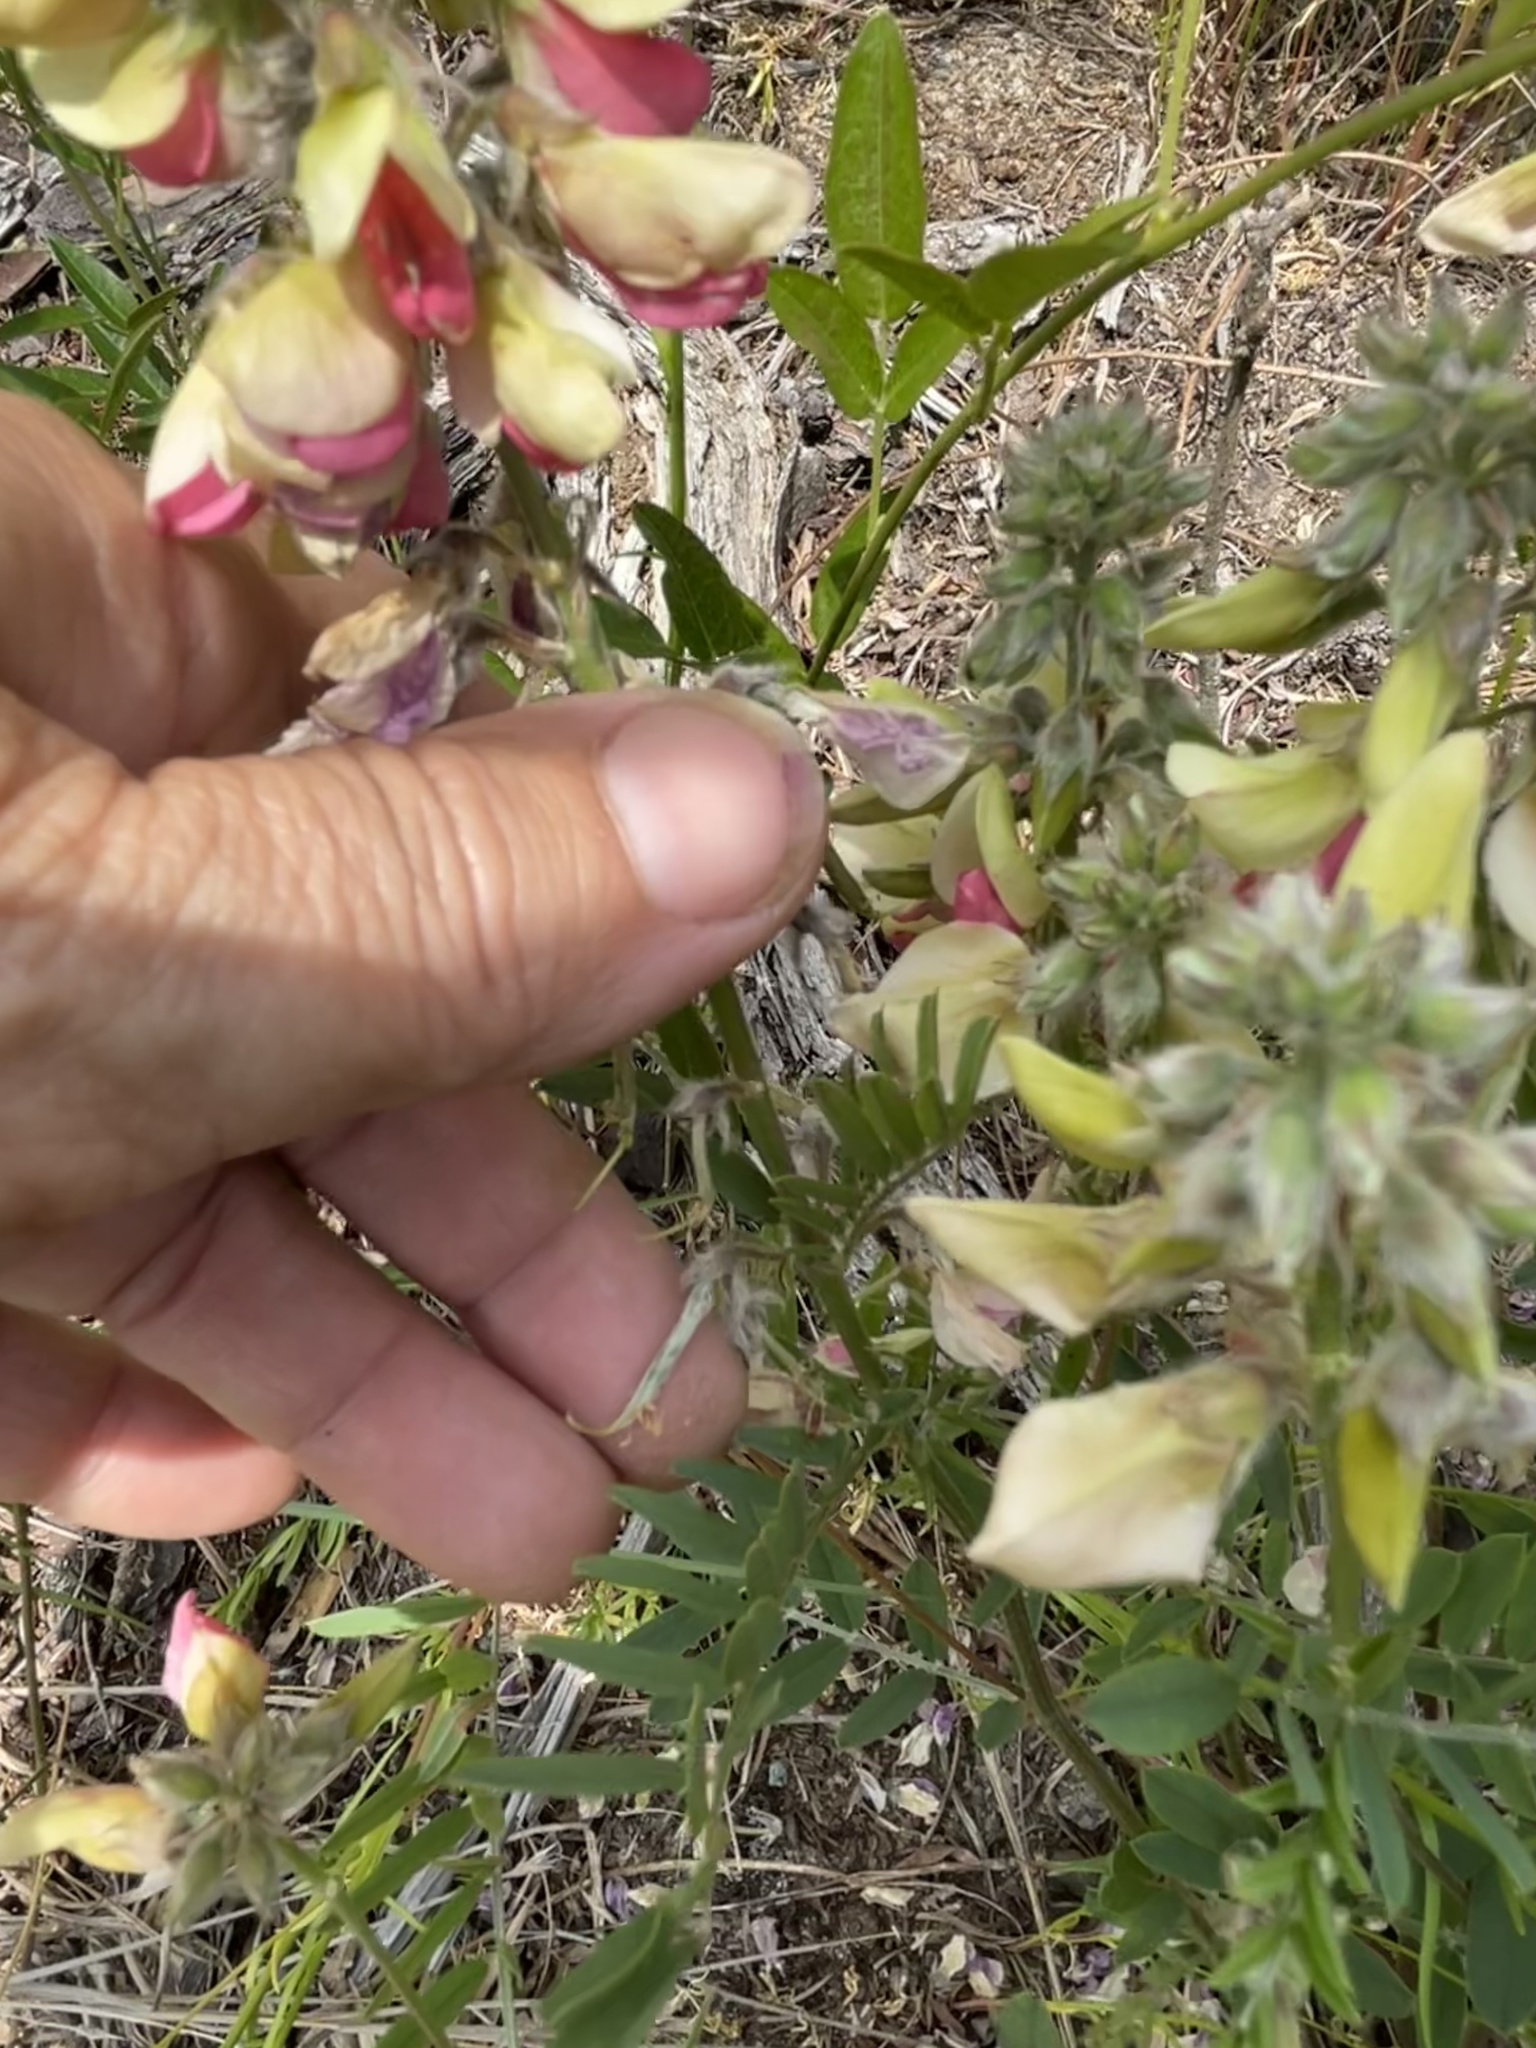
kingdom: Plantae
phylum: Tracheophyta
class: Magnoliopsida
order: Fabales
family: Fabaceae
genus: Tephrosia
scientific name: Tephrosia virginiana
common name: Rabbit-pea
